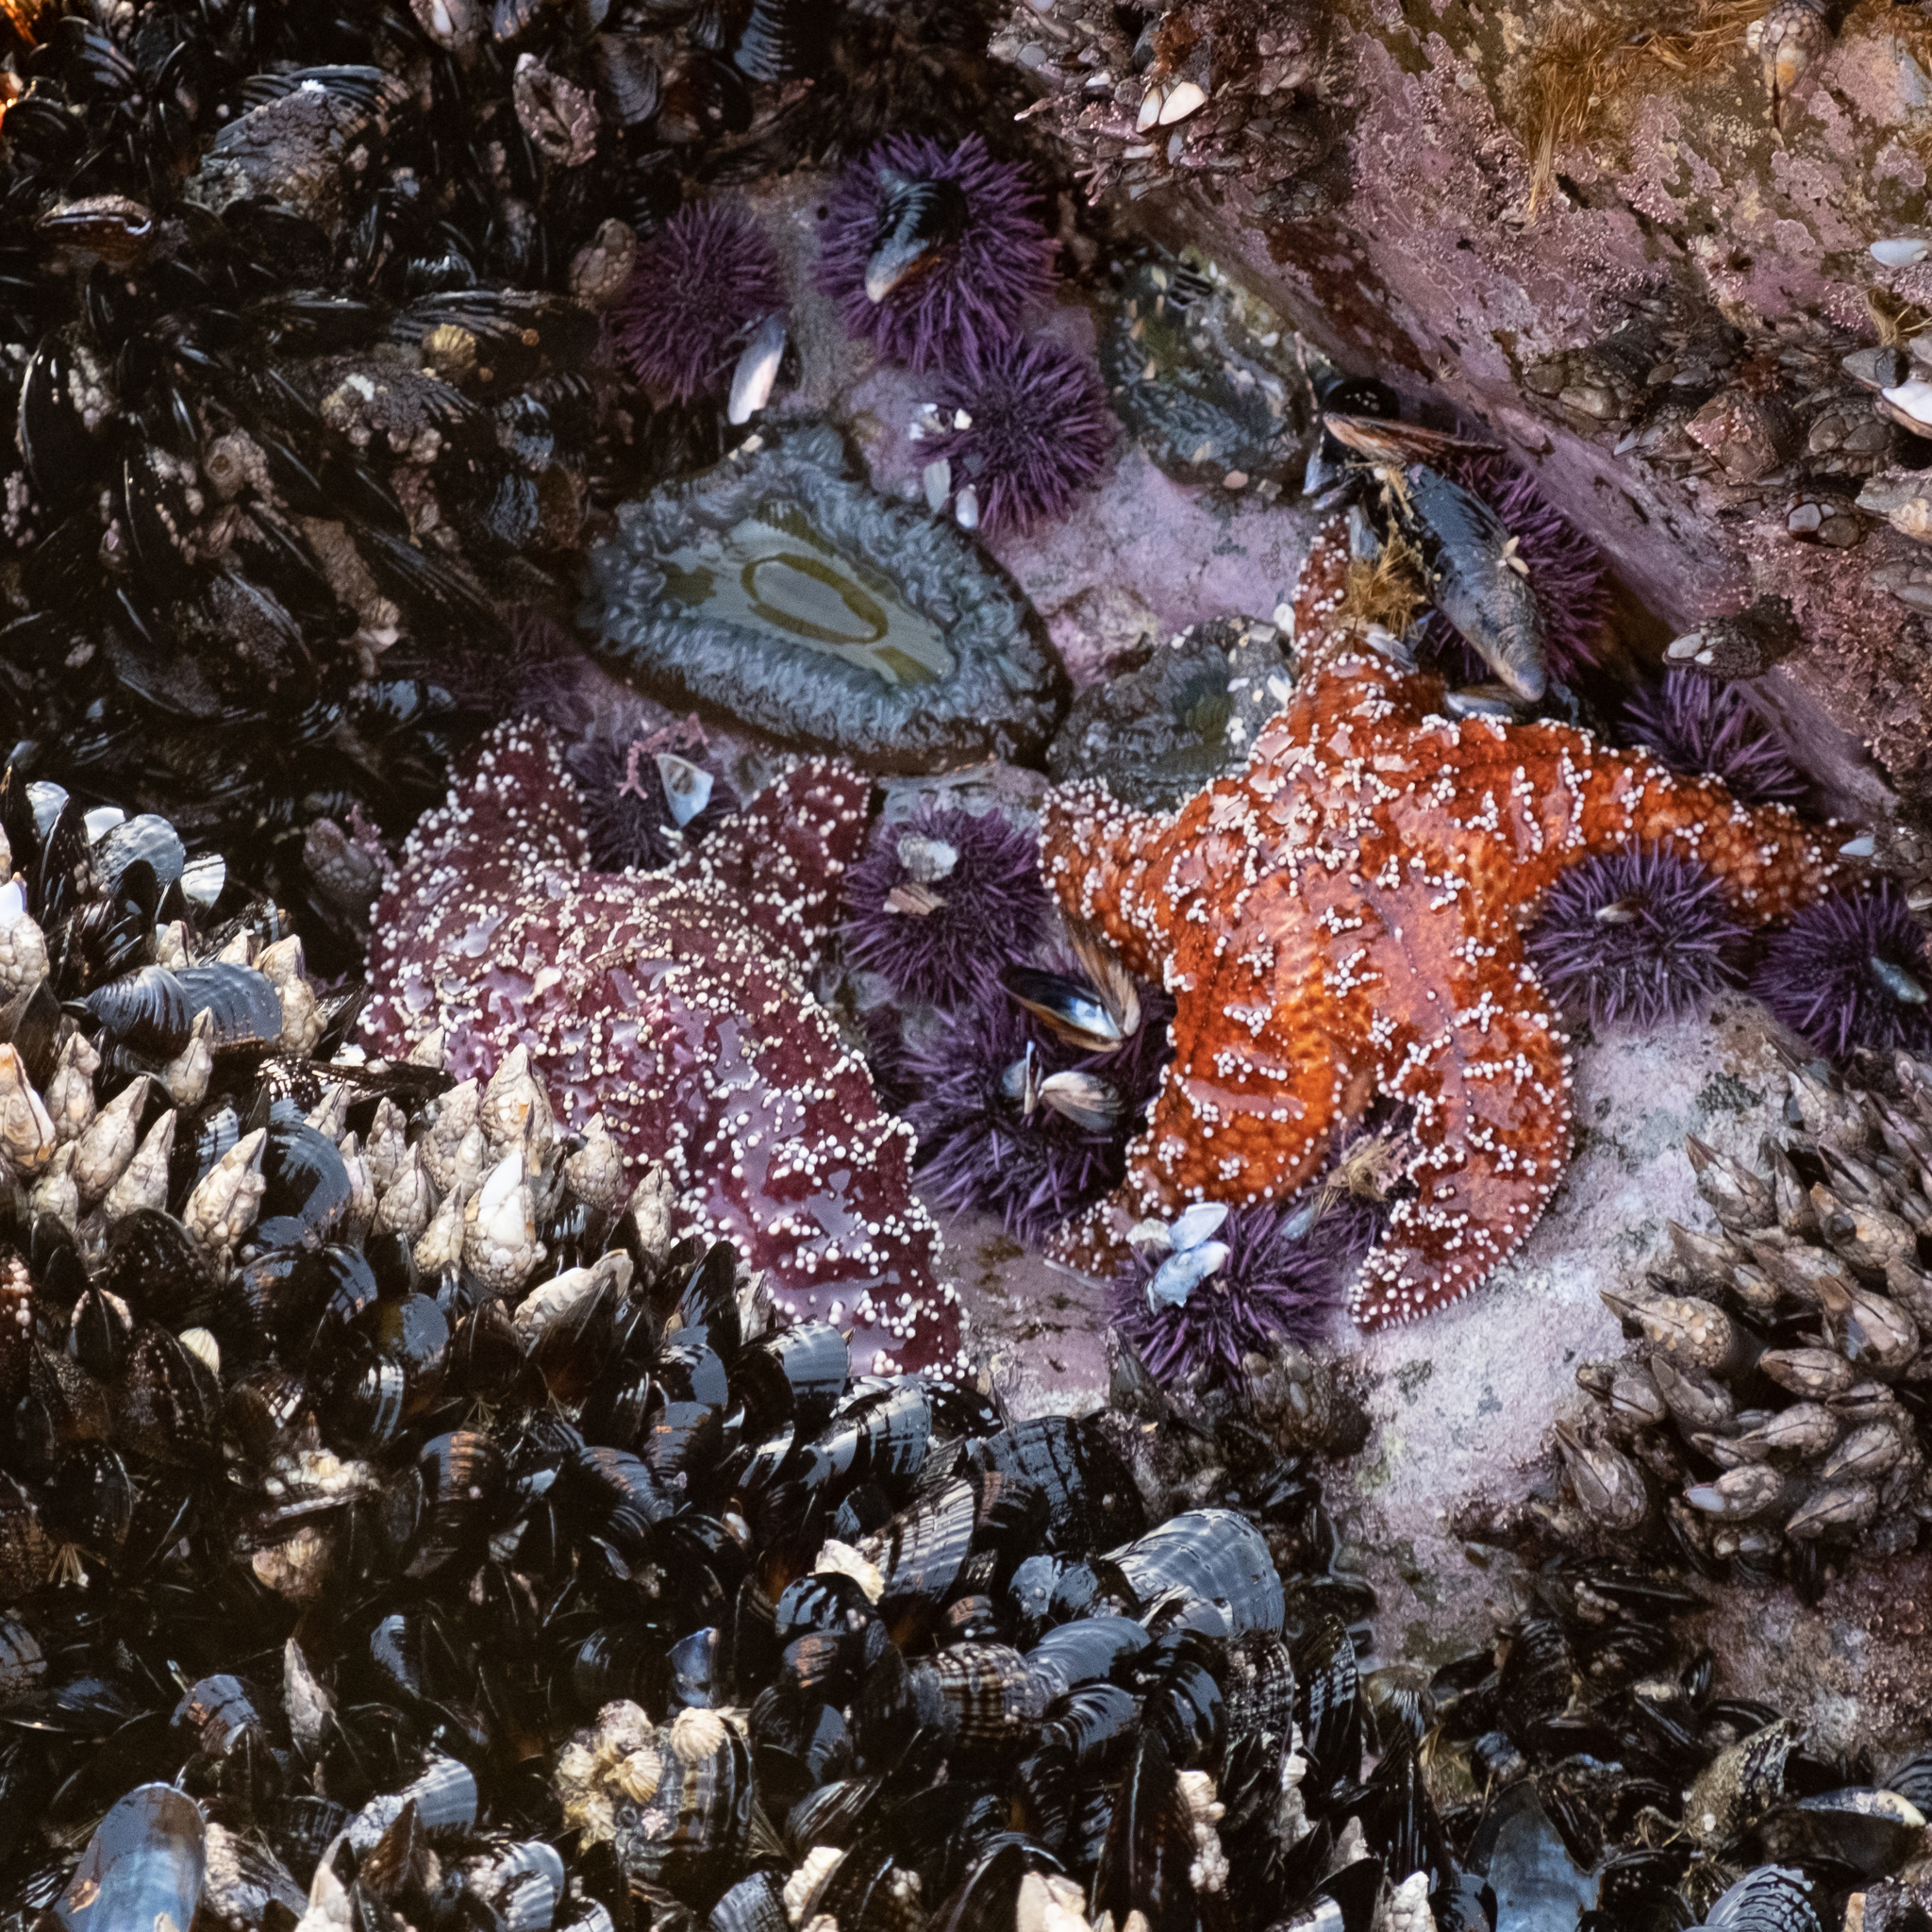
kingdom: Animalia
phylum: Echinodermata
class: Asteroidea
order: Forcipulatida
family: Asteriidae
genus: Pisaster
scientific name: Pisaster ochraceus
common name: Ochre stars
